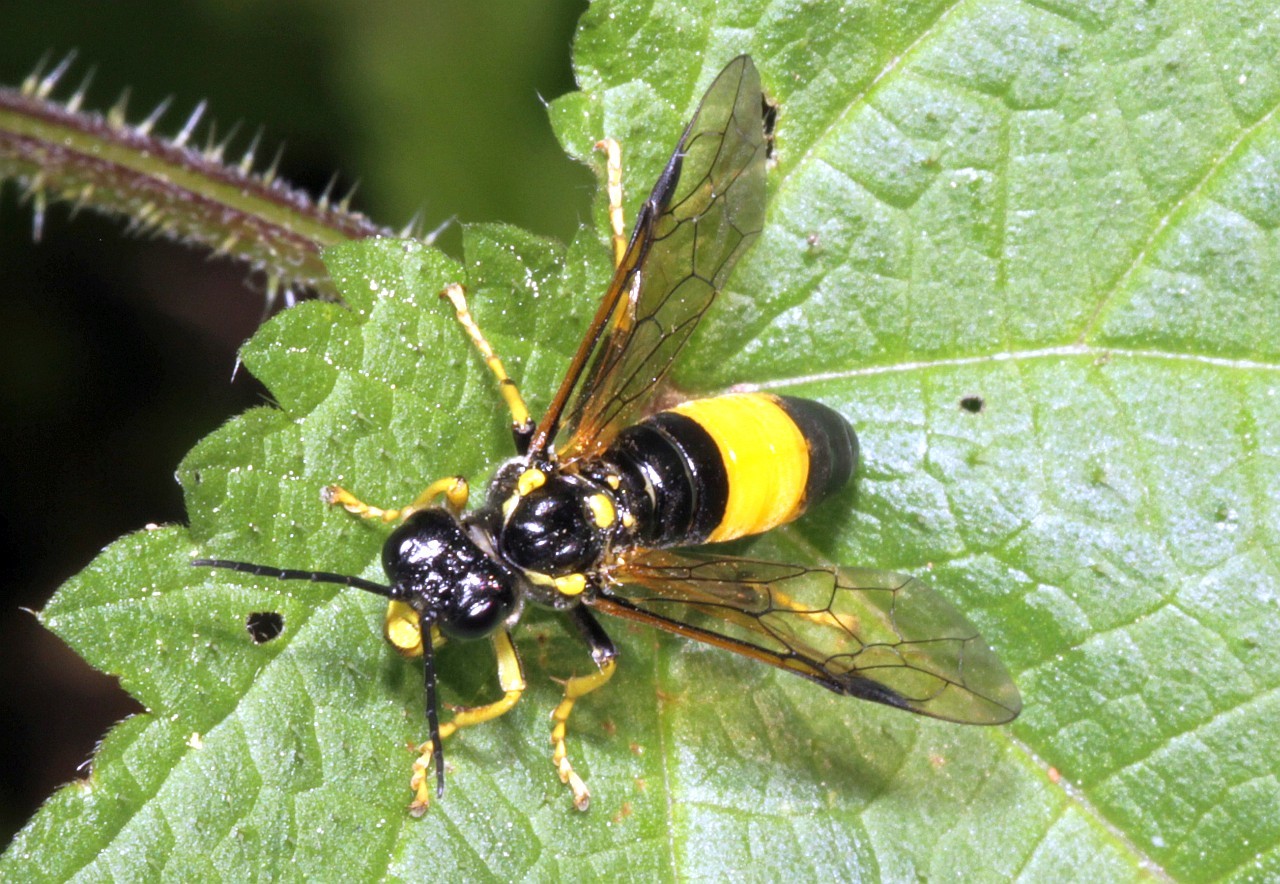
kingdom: Animalia
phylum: Arthropoda
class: Insecta
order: Hymenoptera
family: Tenthredinidae
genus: Tenthredo
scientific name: Tenthredo maculata
